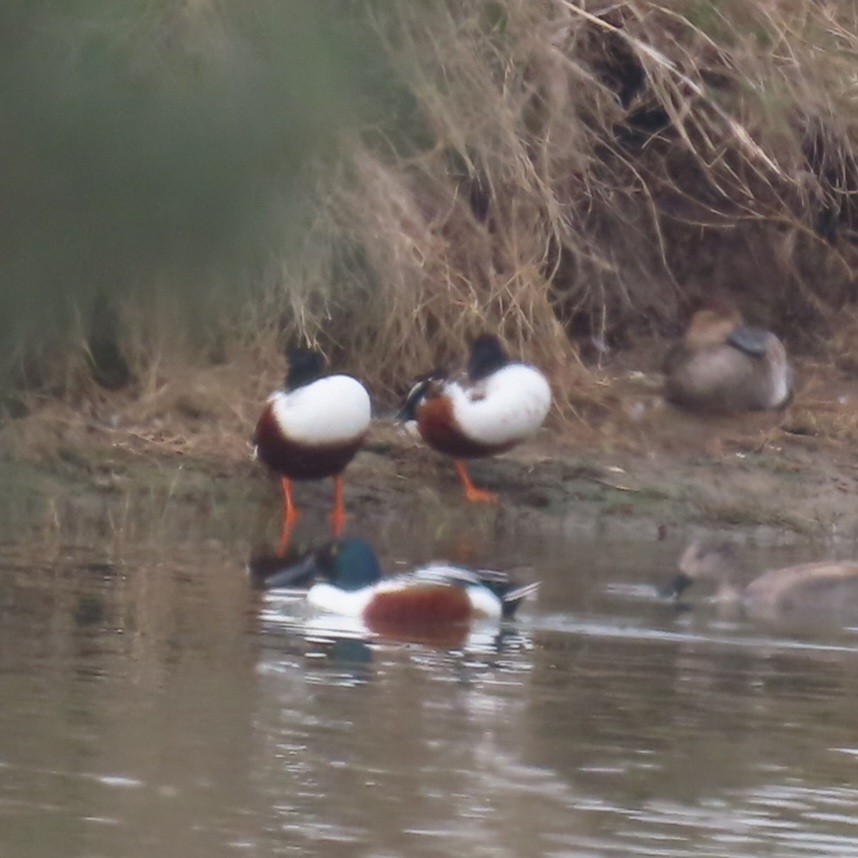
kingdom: Animalia
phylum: Chordata
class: Aves
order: Anseriformes
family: Anatidae
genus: Spatula
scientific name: Spatula clypeata
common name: Northern shoveler
